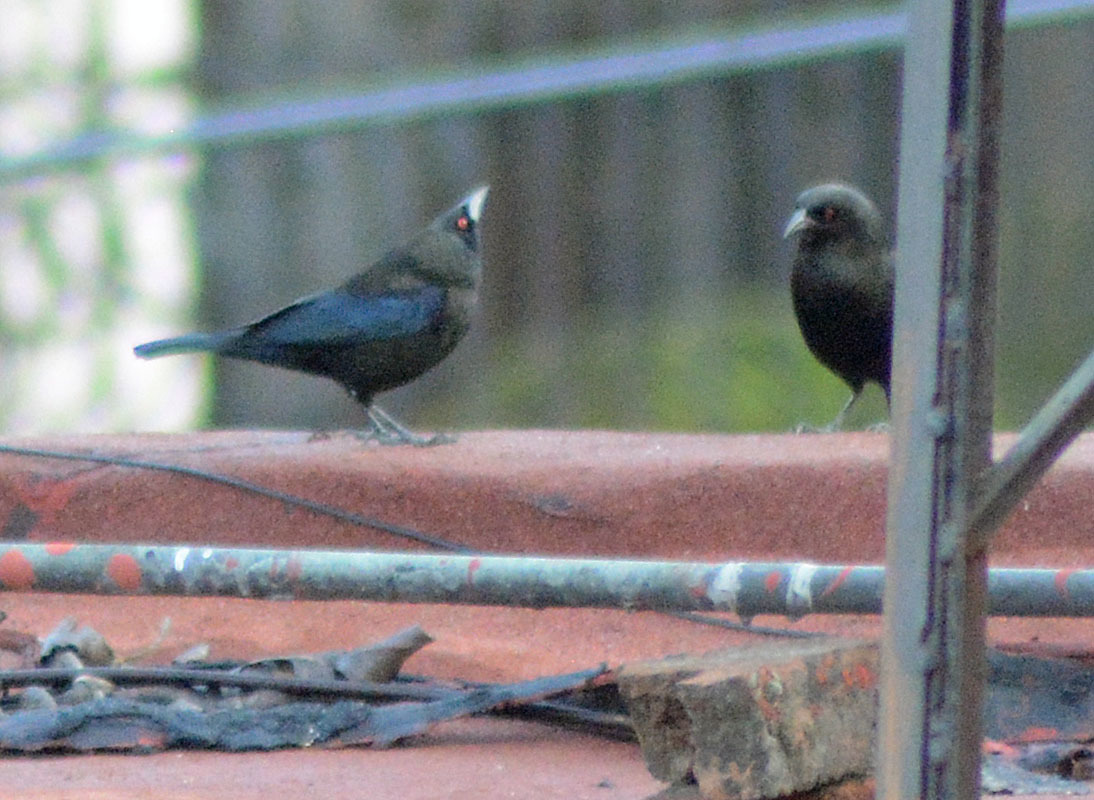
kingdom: Animalia
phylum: Chordata
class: Aves
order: Passeriformes
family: Icteridae
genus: Molothrus
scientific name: Molothrus aeneus
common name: Bronzed cowbird
